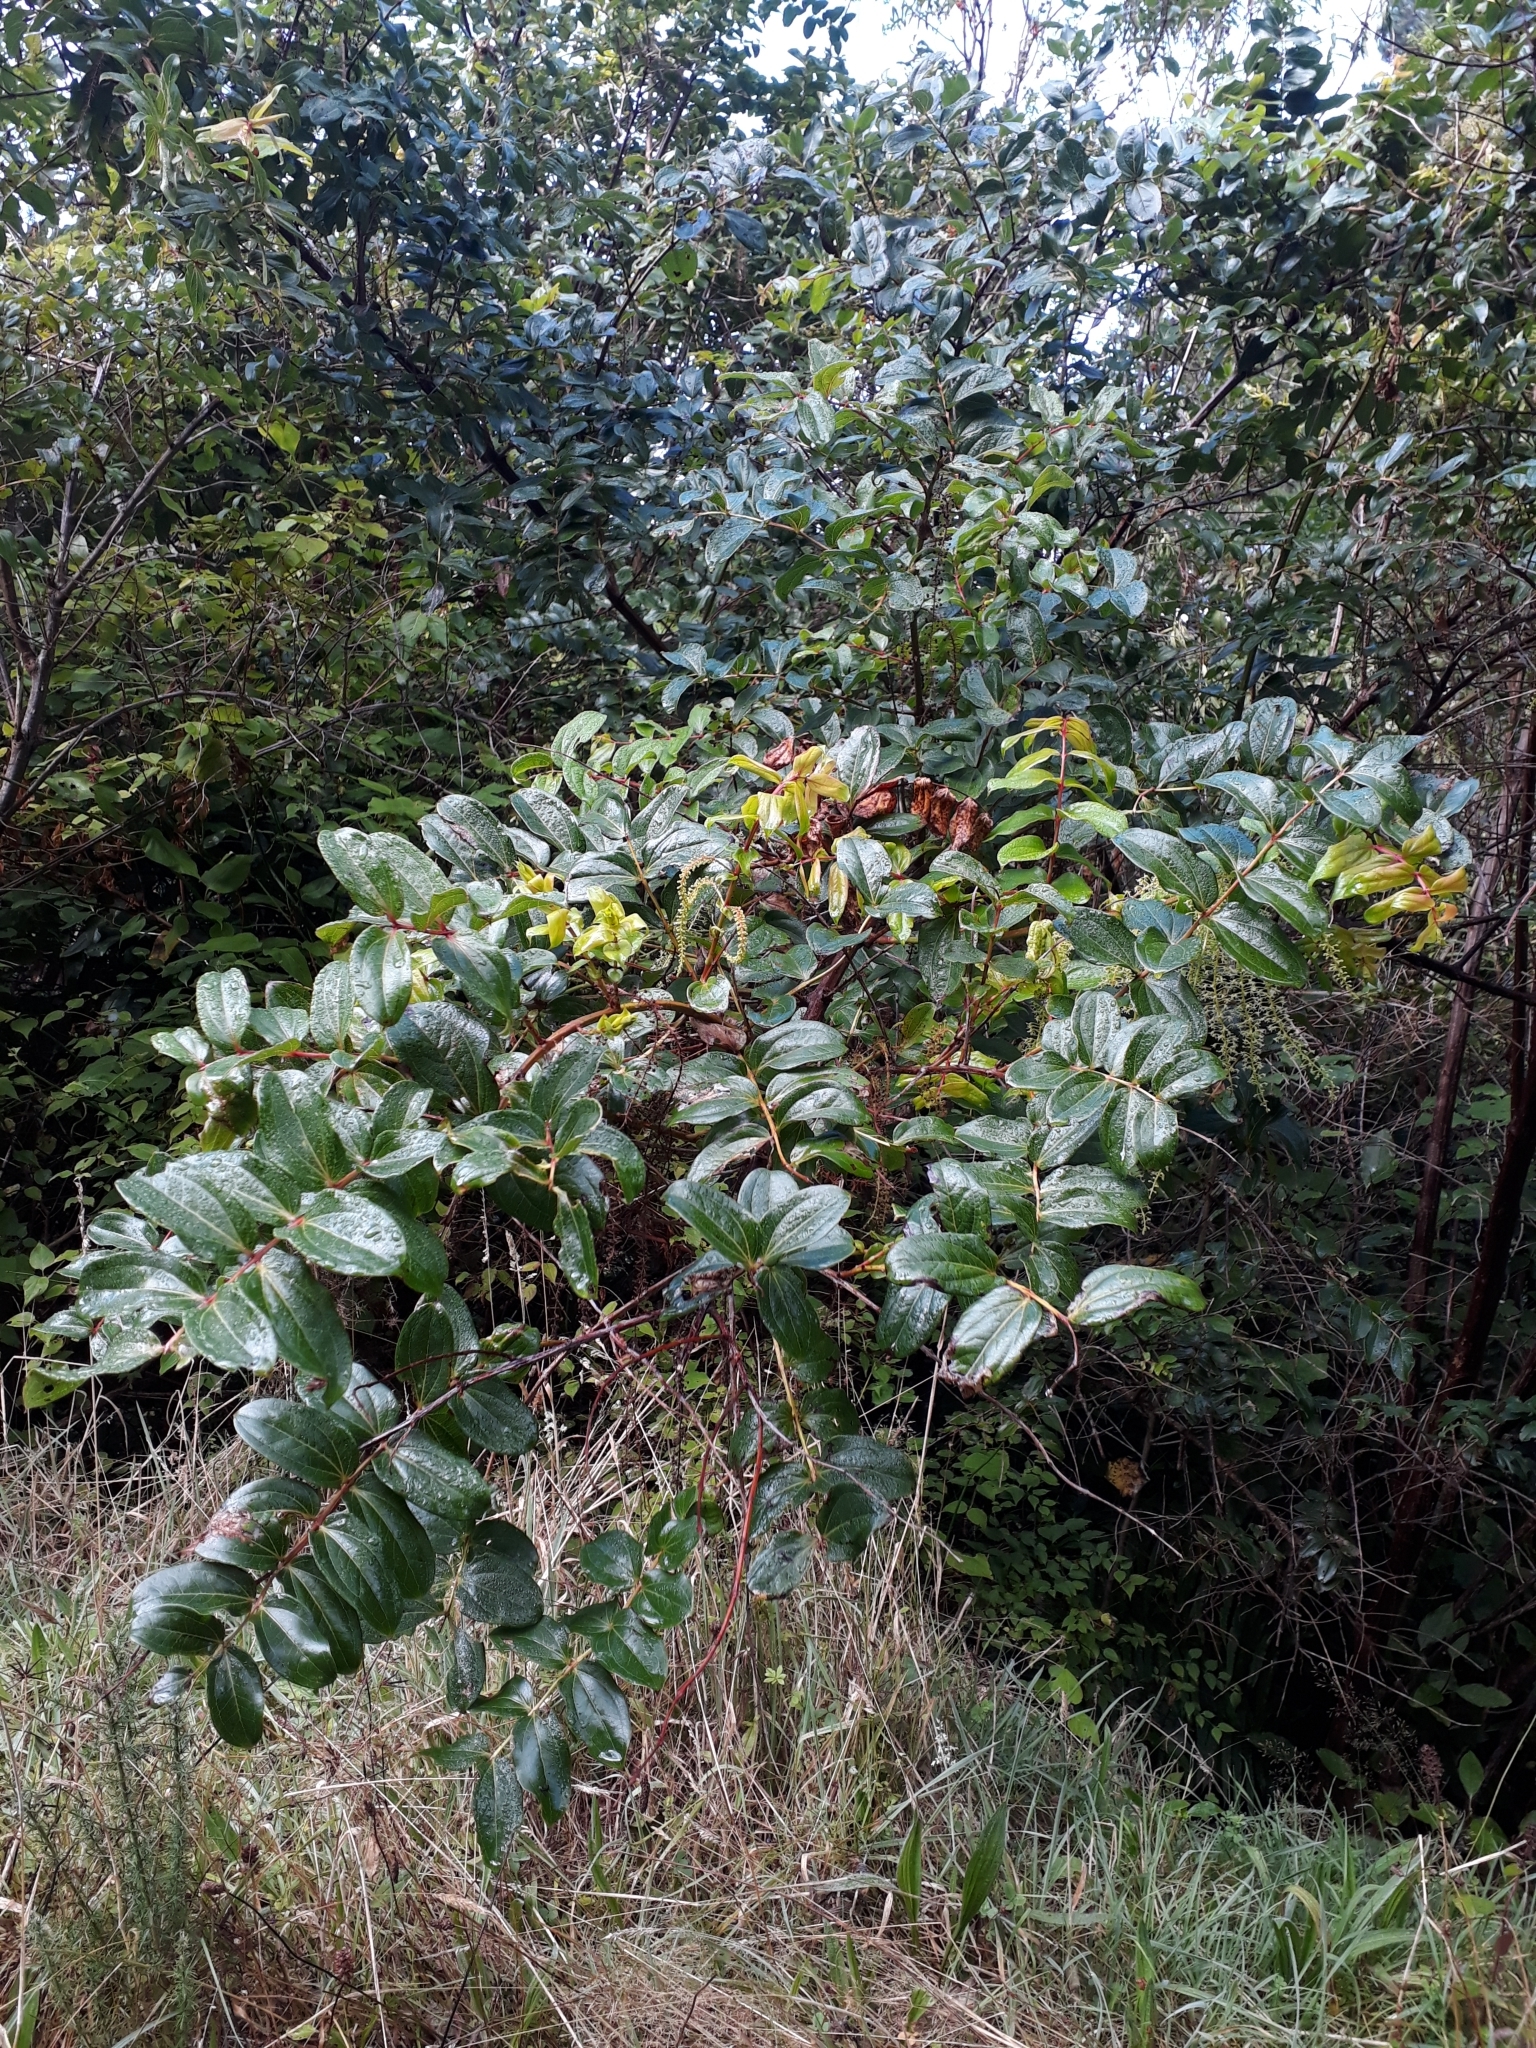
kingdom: Plantae
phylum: Tracheophyta
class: Magnoliopsida
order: Cucurbitales
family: Coriariaceae
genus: Coriaria
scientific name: Coriaria arborea
